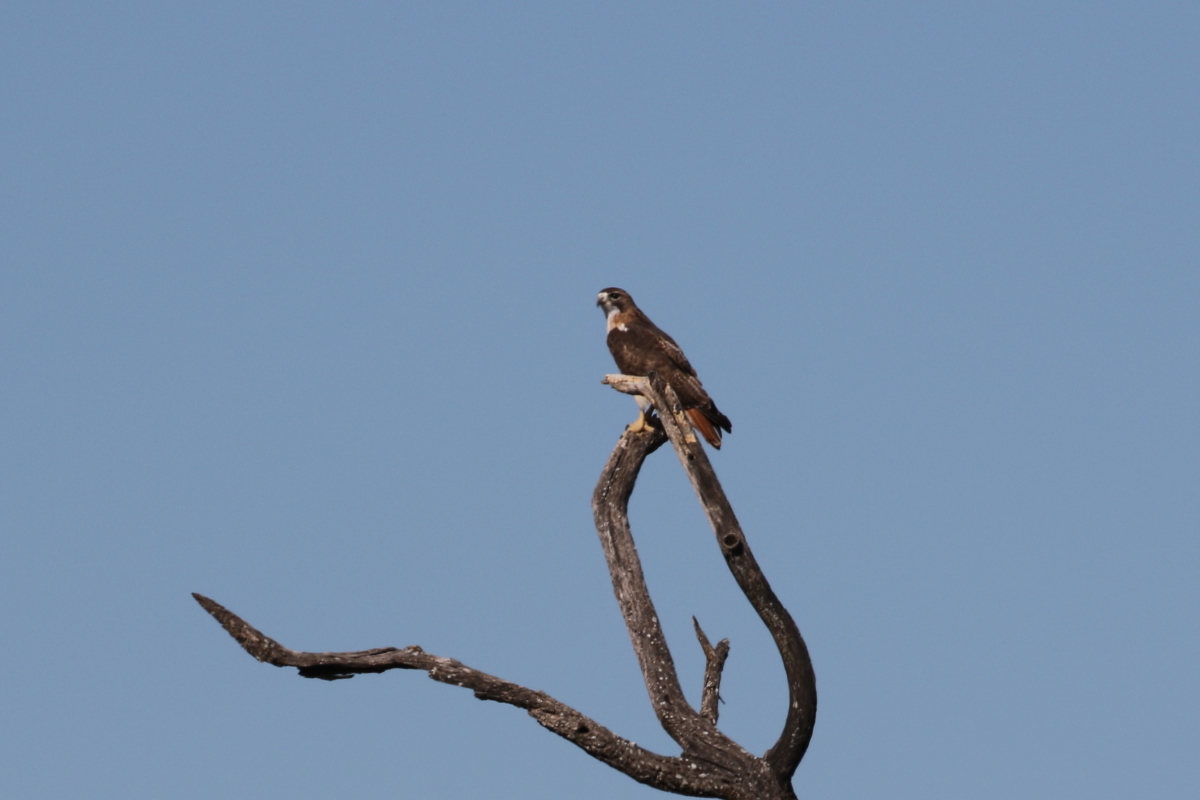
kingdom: Animalia
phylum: Chordata
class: Aves
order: Accipitriformes
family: Accipitridae
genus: Buteo
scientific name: Buteo jamaicensis
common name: Red-tailed hawk
